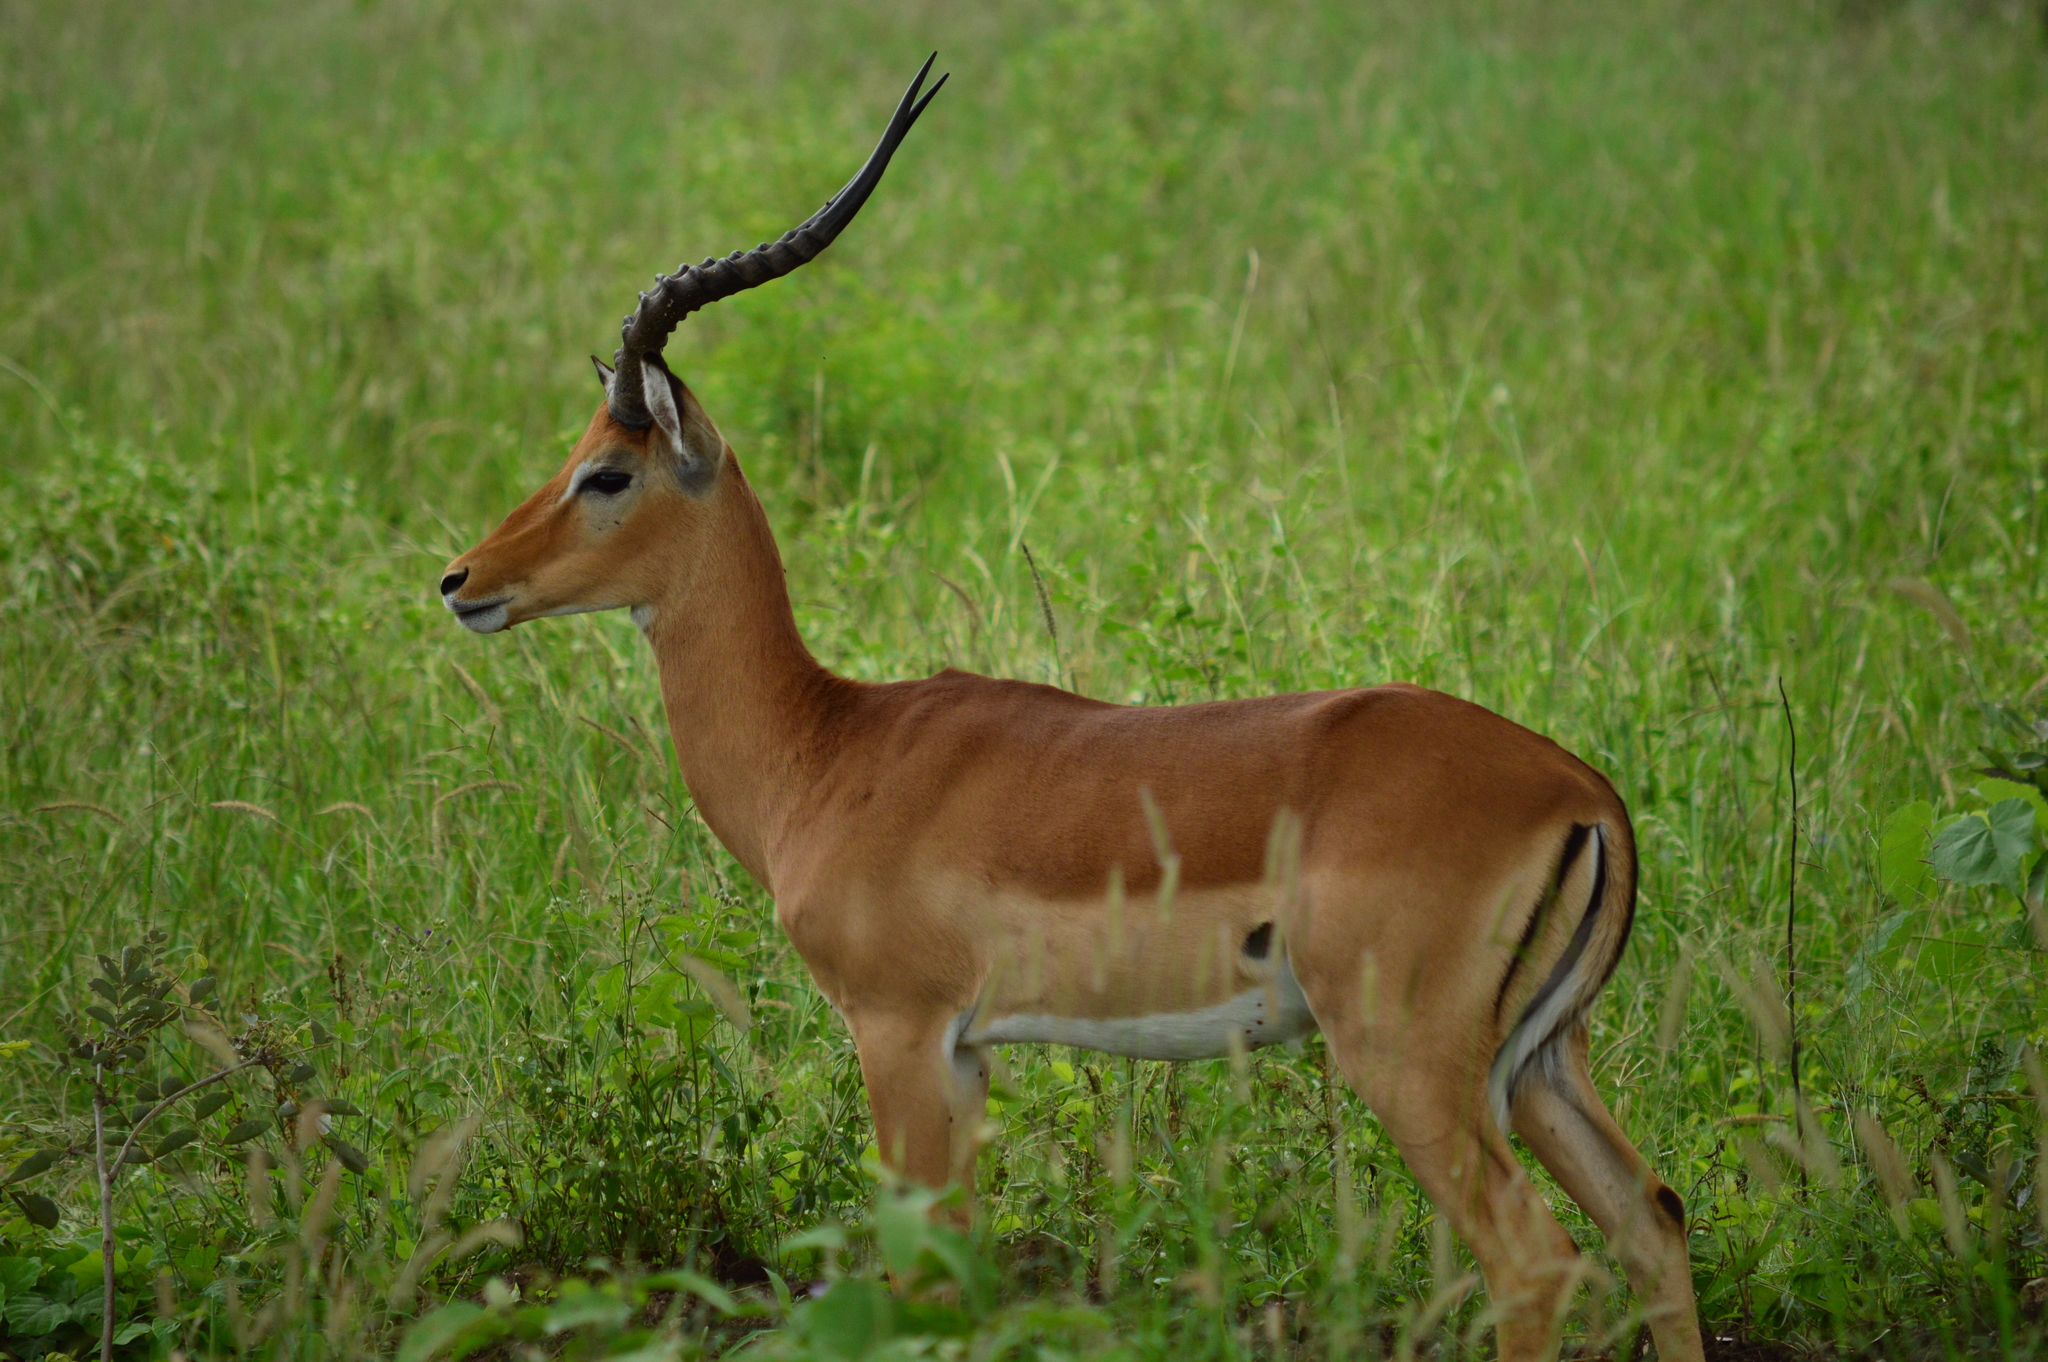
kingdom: Animalia
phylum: Chordata
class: Mammalia
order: Artiodactyla
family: Bovidae
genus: Aepyceros
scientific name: Aepyceros melampus
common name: Impala
